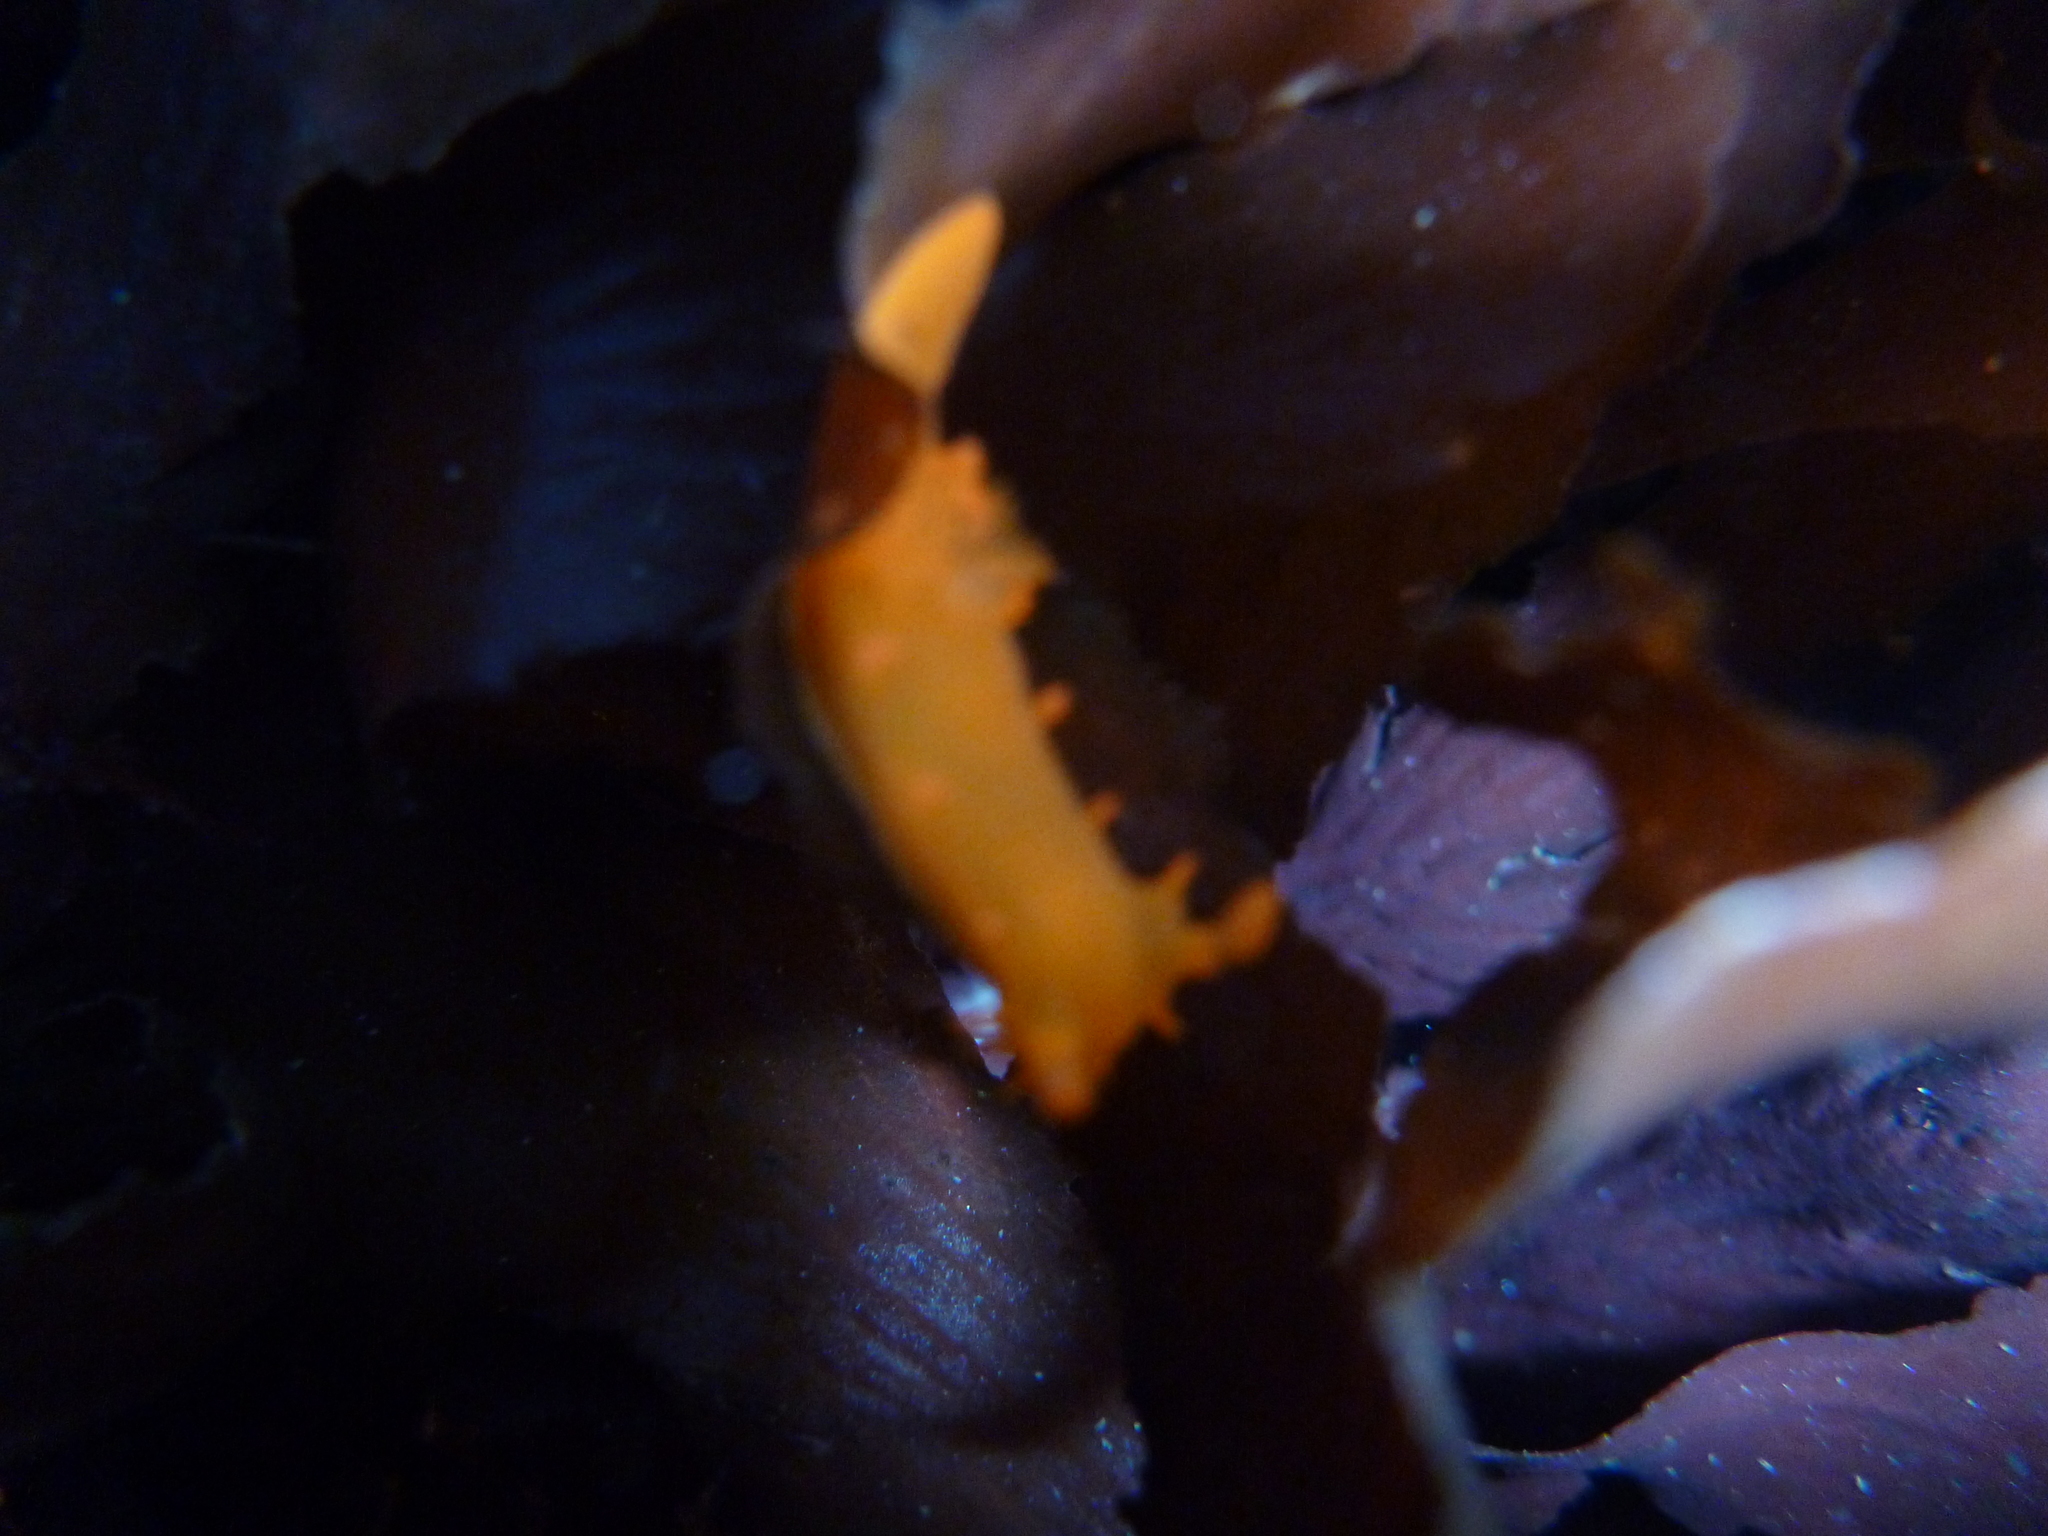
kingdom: Animalia
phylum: Mollusca
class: Gastropoda
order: Nudibranchia
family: Polyceridae
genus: Triopha
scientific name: Triopha maculata
